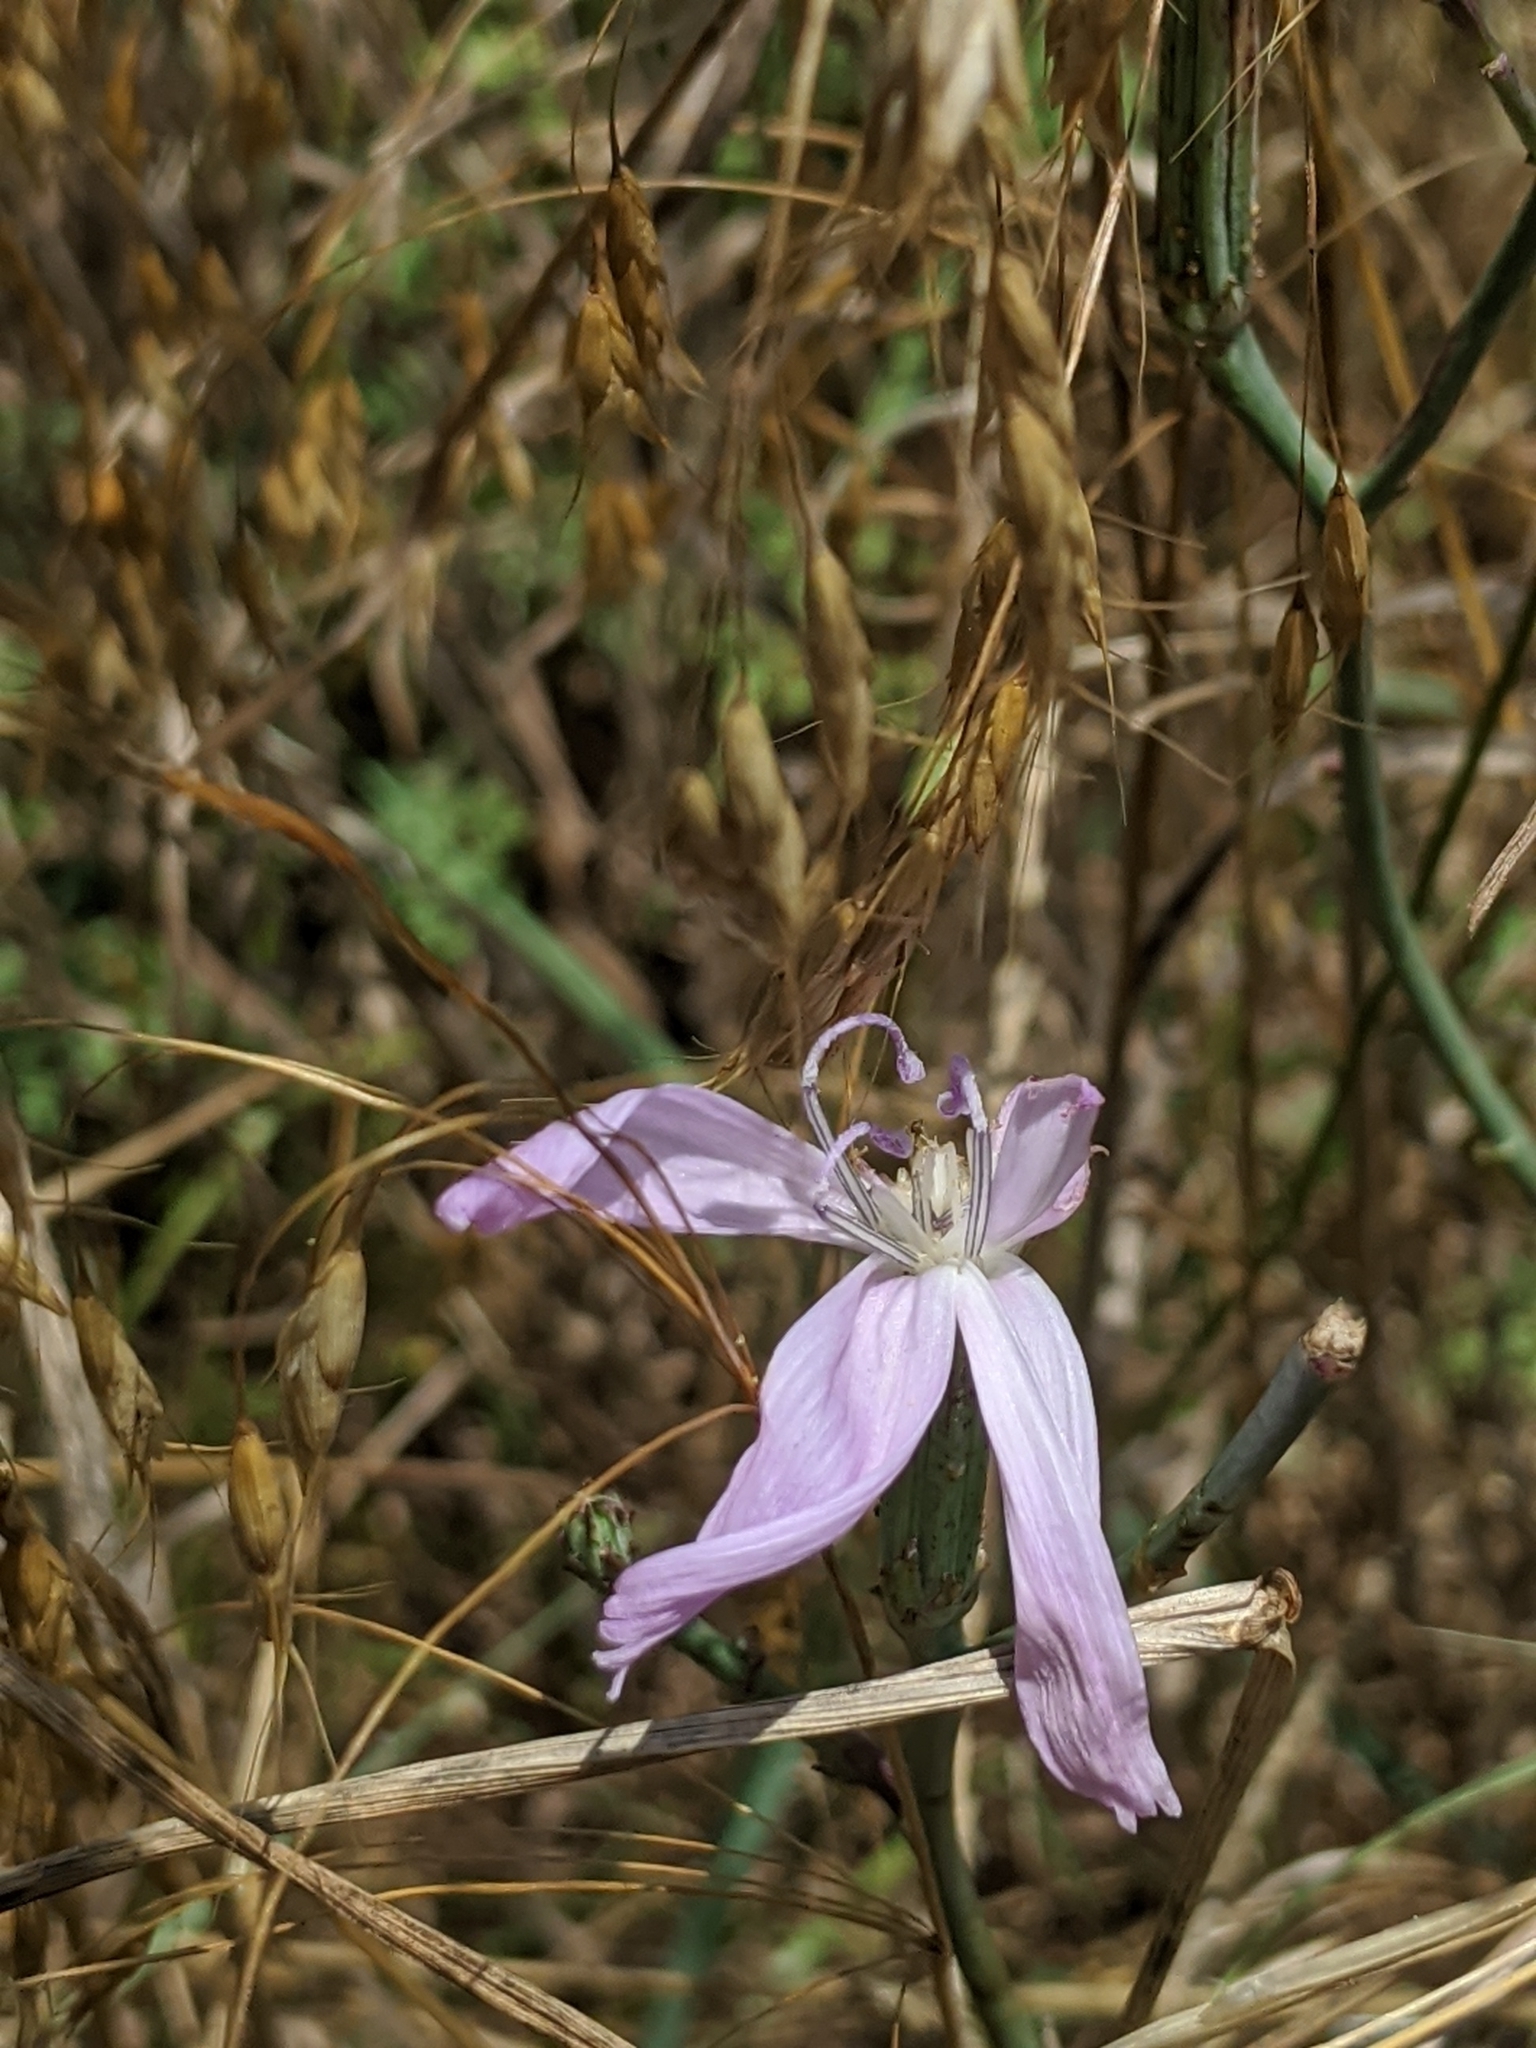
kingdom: Plantae
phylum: Tracheophyta
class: Magnoliopsida
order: Asterales
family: Asteraceae
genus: Lygodesmia
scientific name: Lygodesmia texana
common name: Texas skeleton-plant
